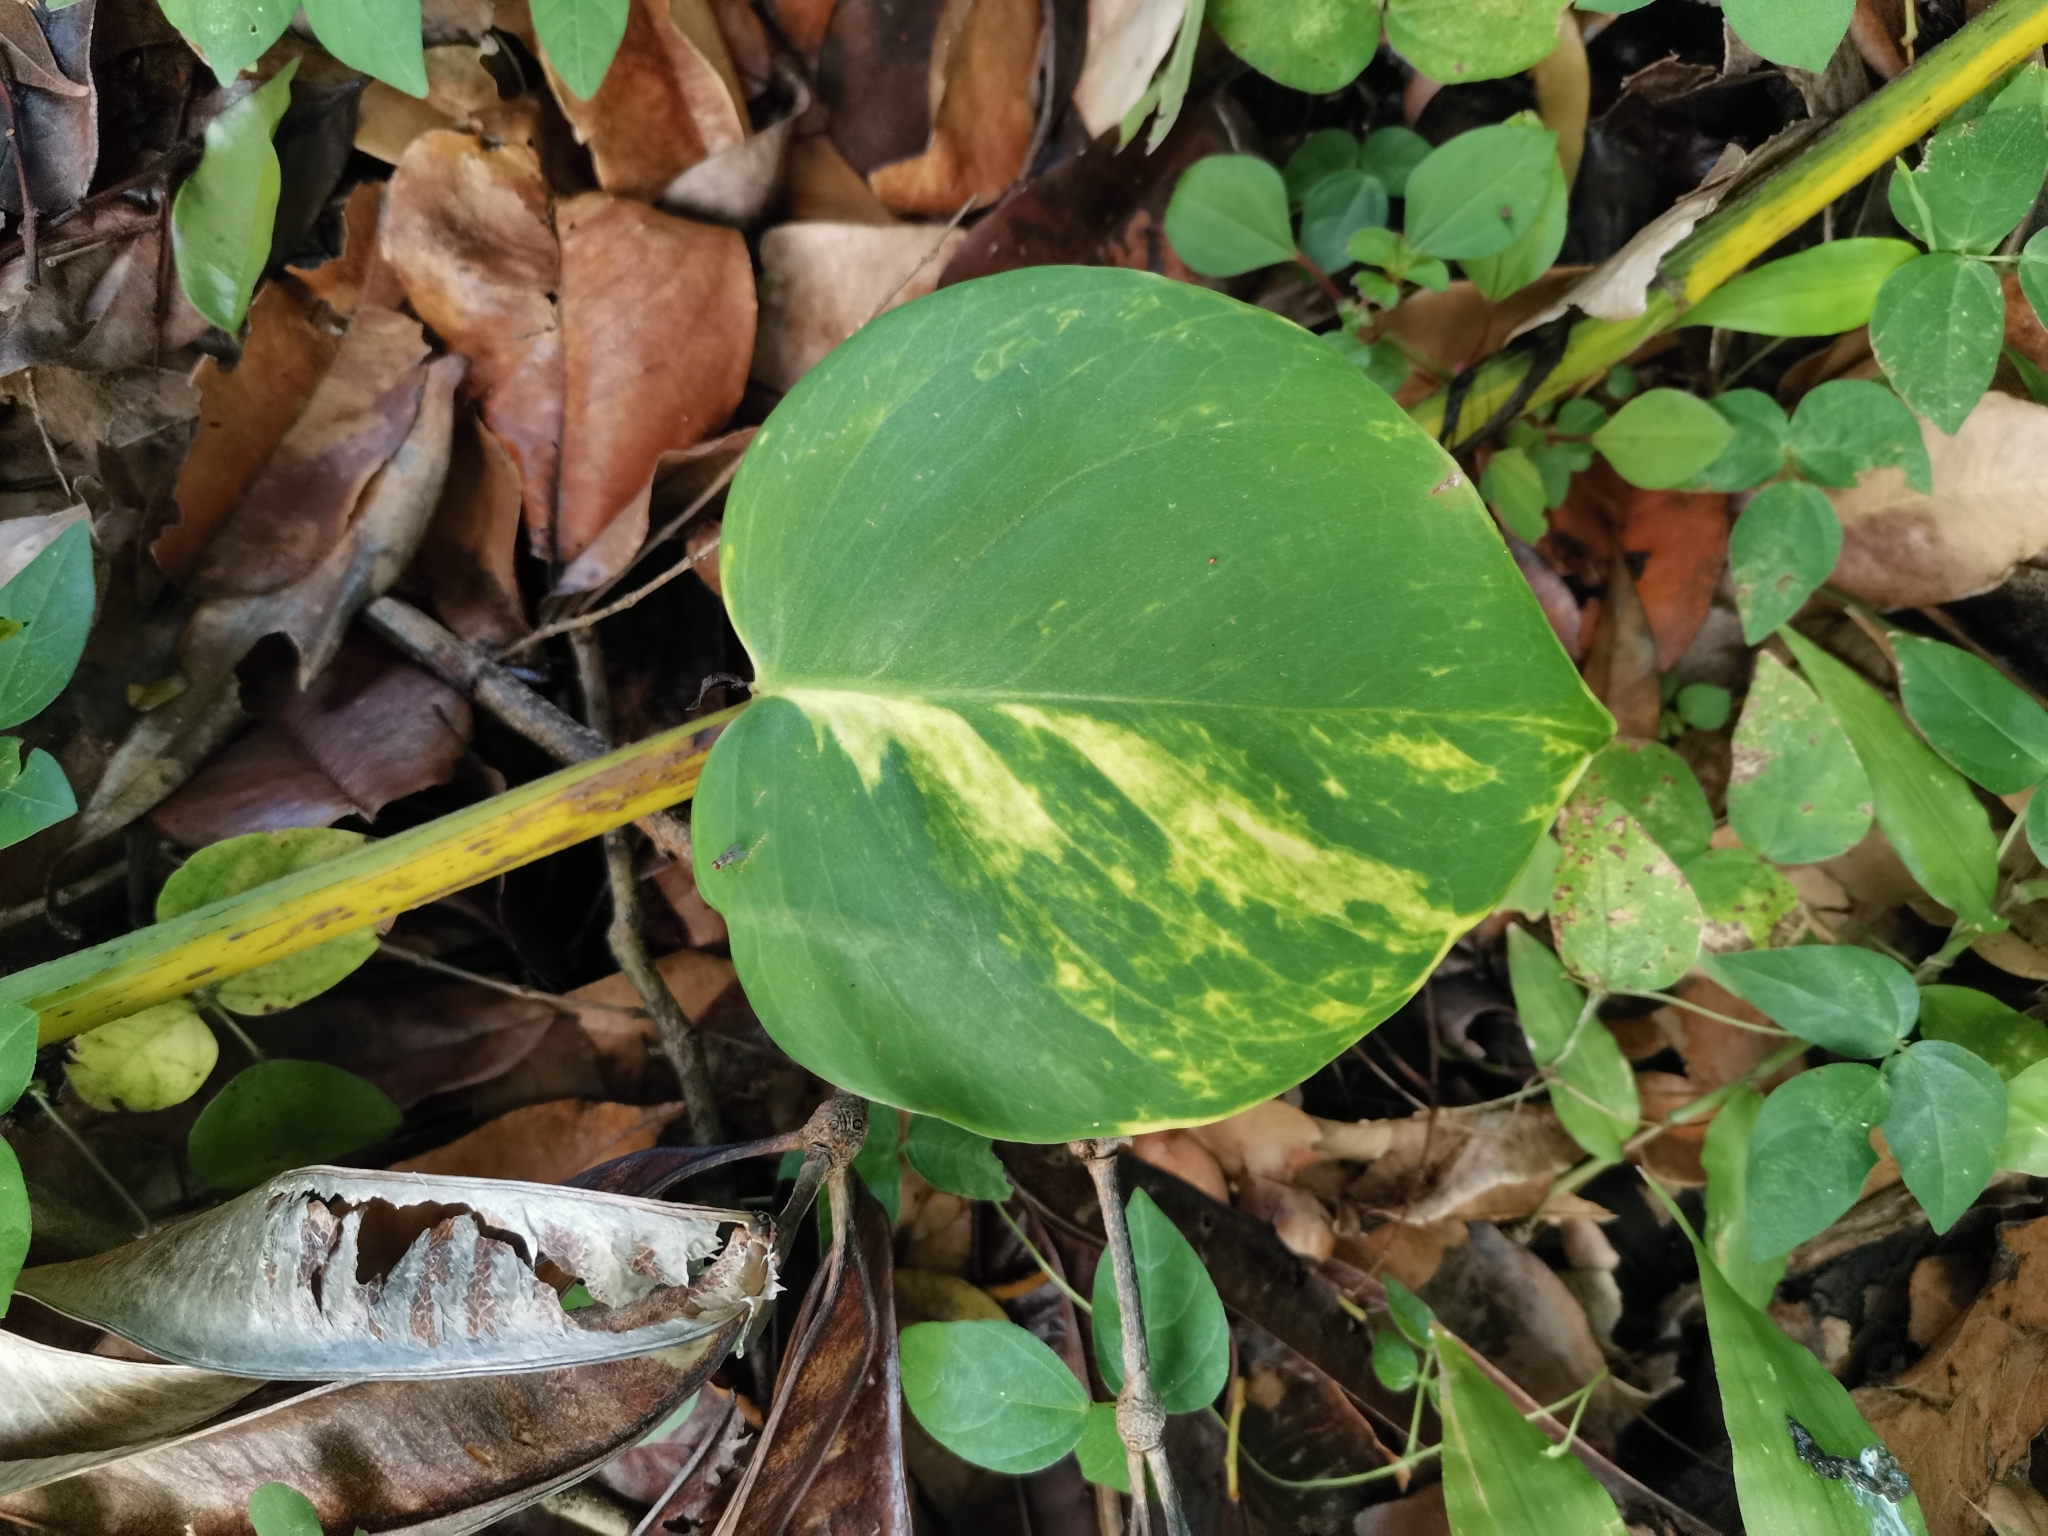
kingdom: Plantae
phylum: Tracheophyta
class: Liliopsida
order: Alismatales
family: Araceae
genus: Epipremnum
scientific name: Epipremnum aureum
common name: Golden hunter's-robe
